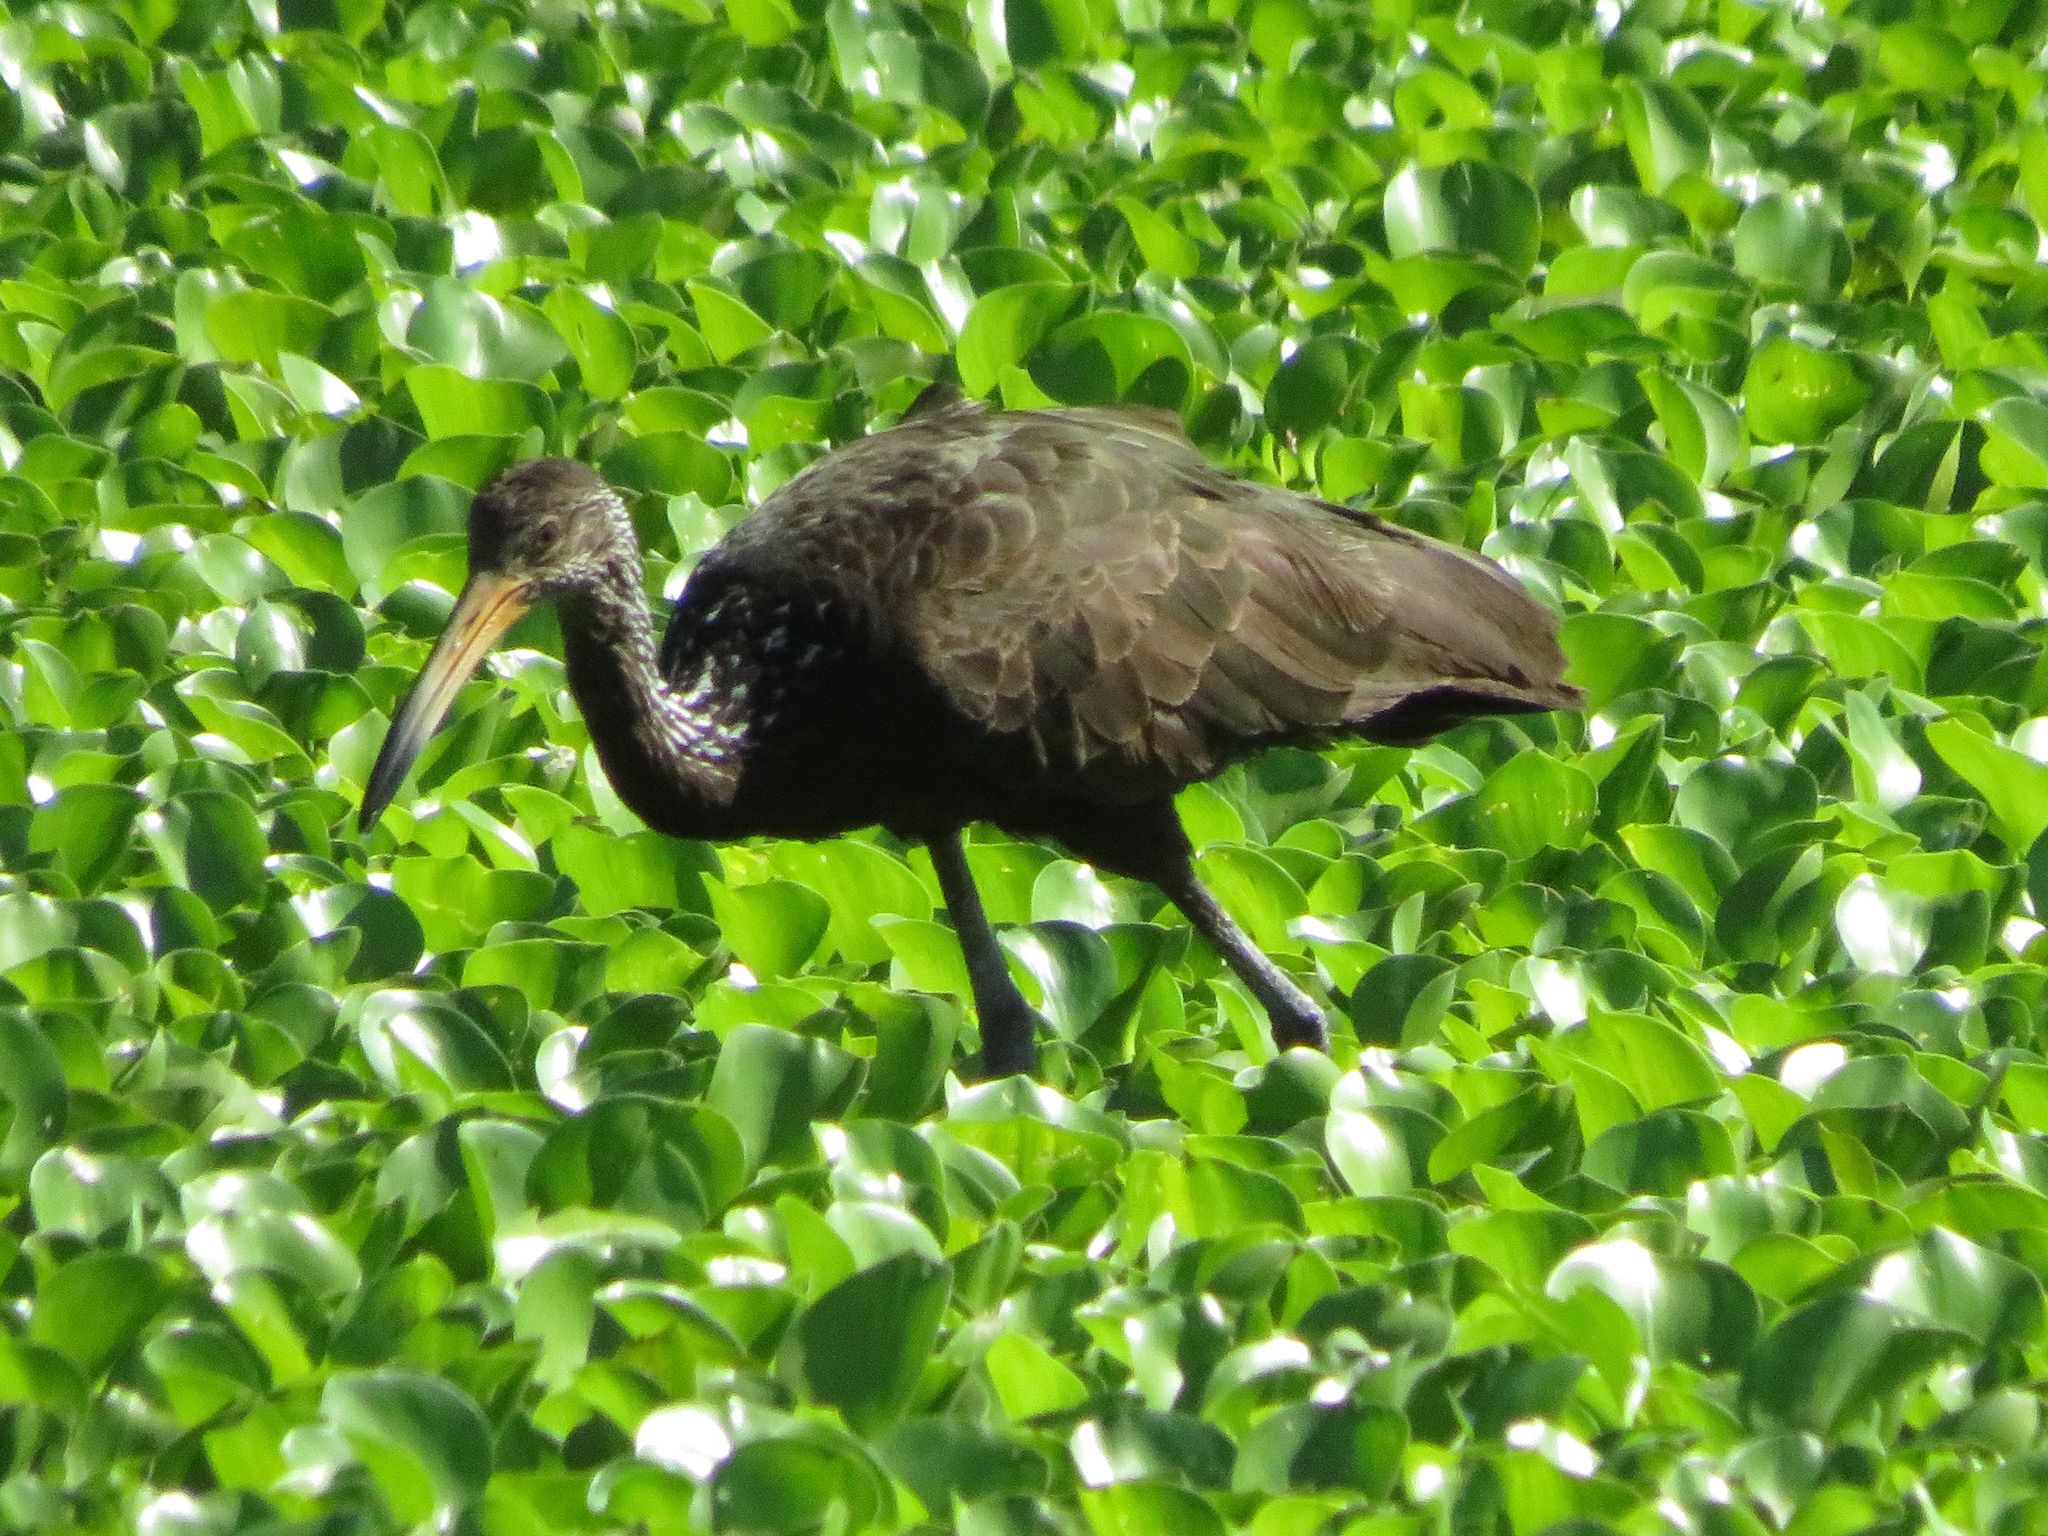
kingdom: Animalia
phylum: Chordata
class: Aves
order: Gruiformes
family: Aramidae
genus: Aramus
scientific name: Aramus guarauna
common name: Limpkin
